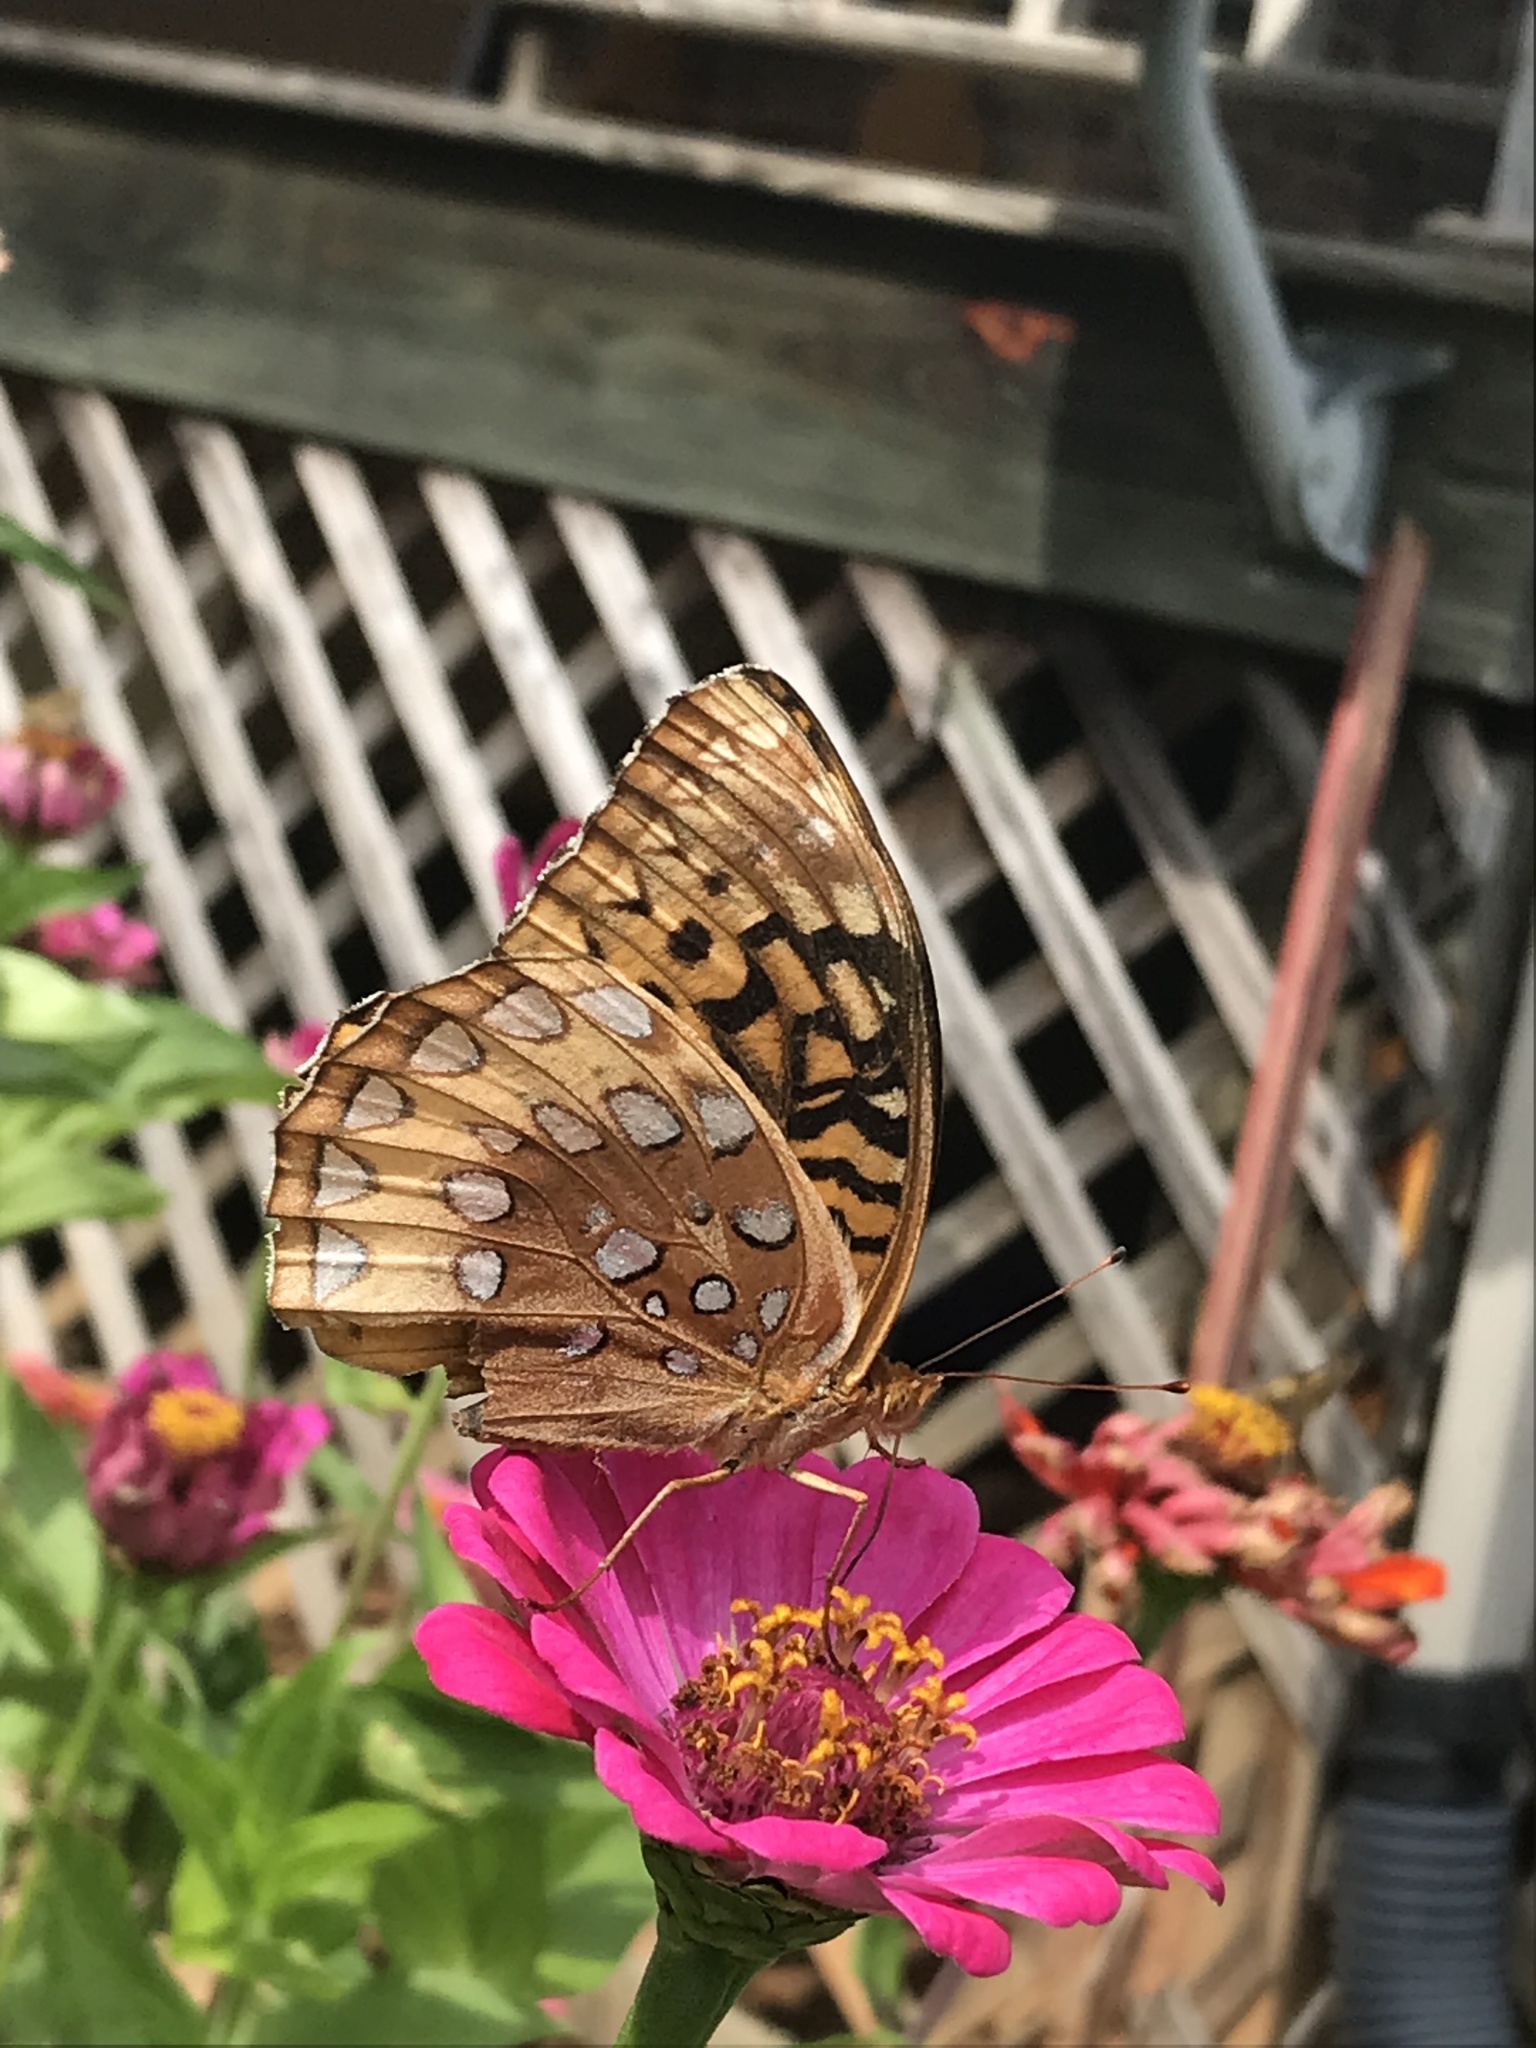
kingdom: Animalia
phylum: Arthropoda
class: Insecta
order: Lepidoptera
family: Nymphalidae
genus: Speyeria
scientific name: Speyeria cybele
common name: Great spangled fritillary
